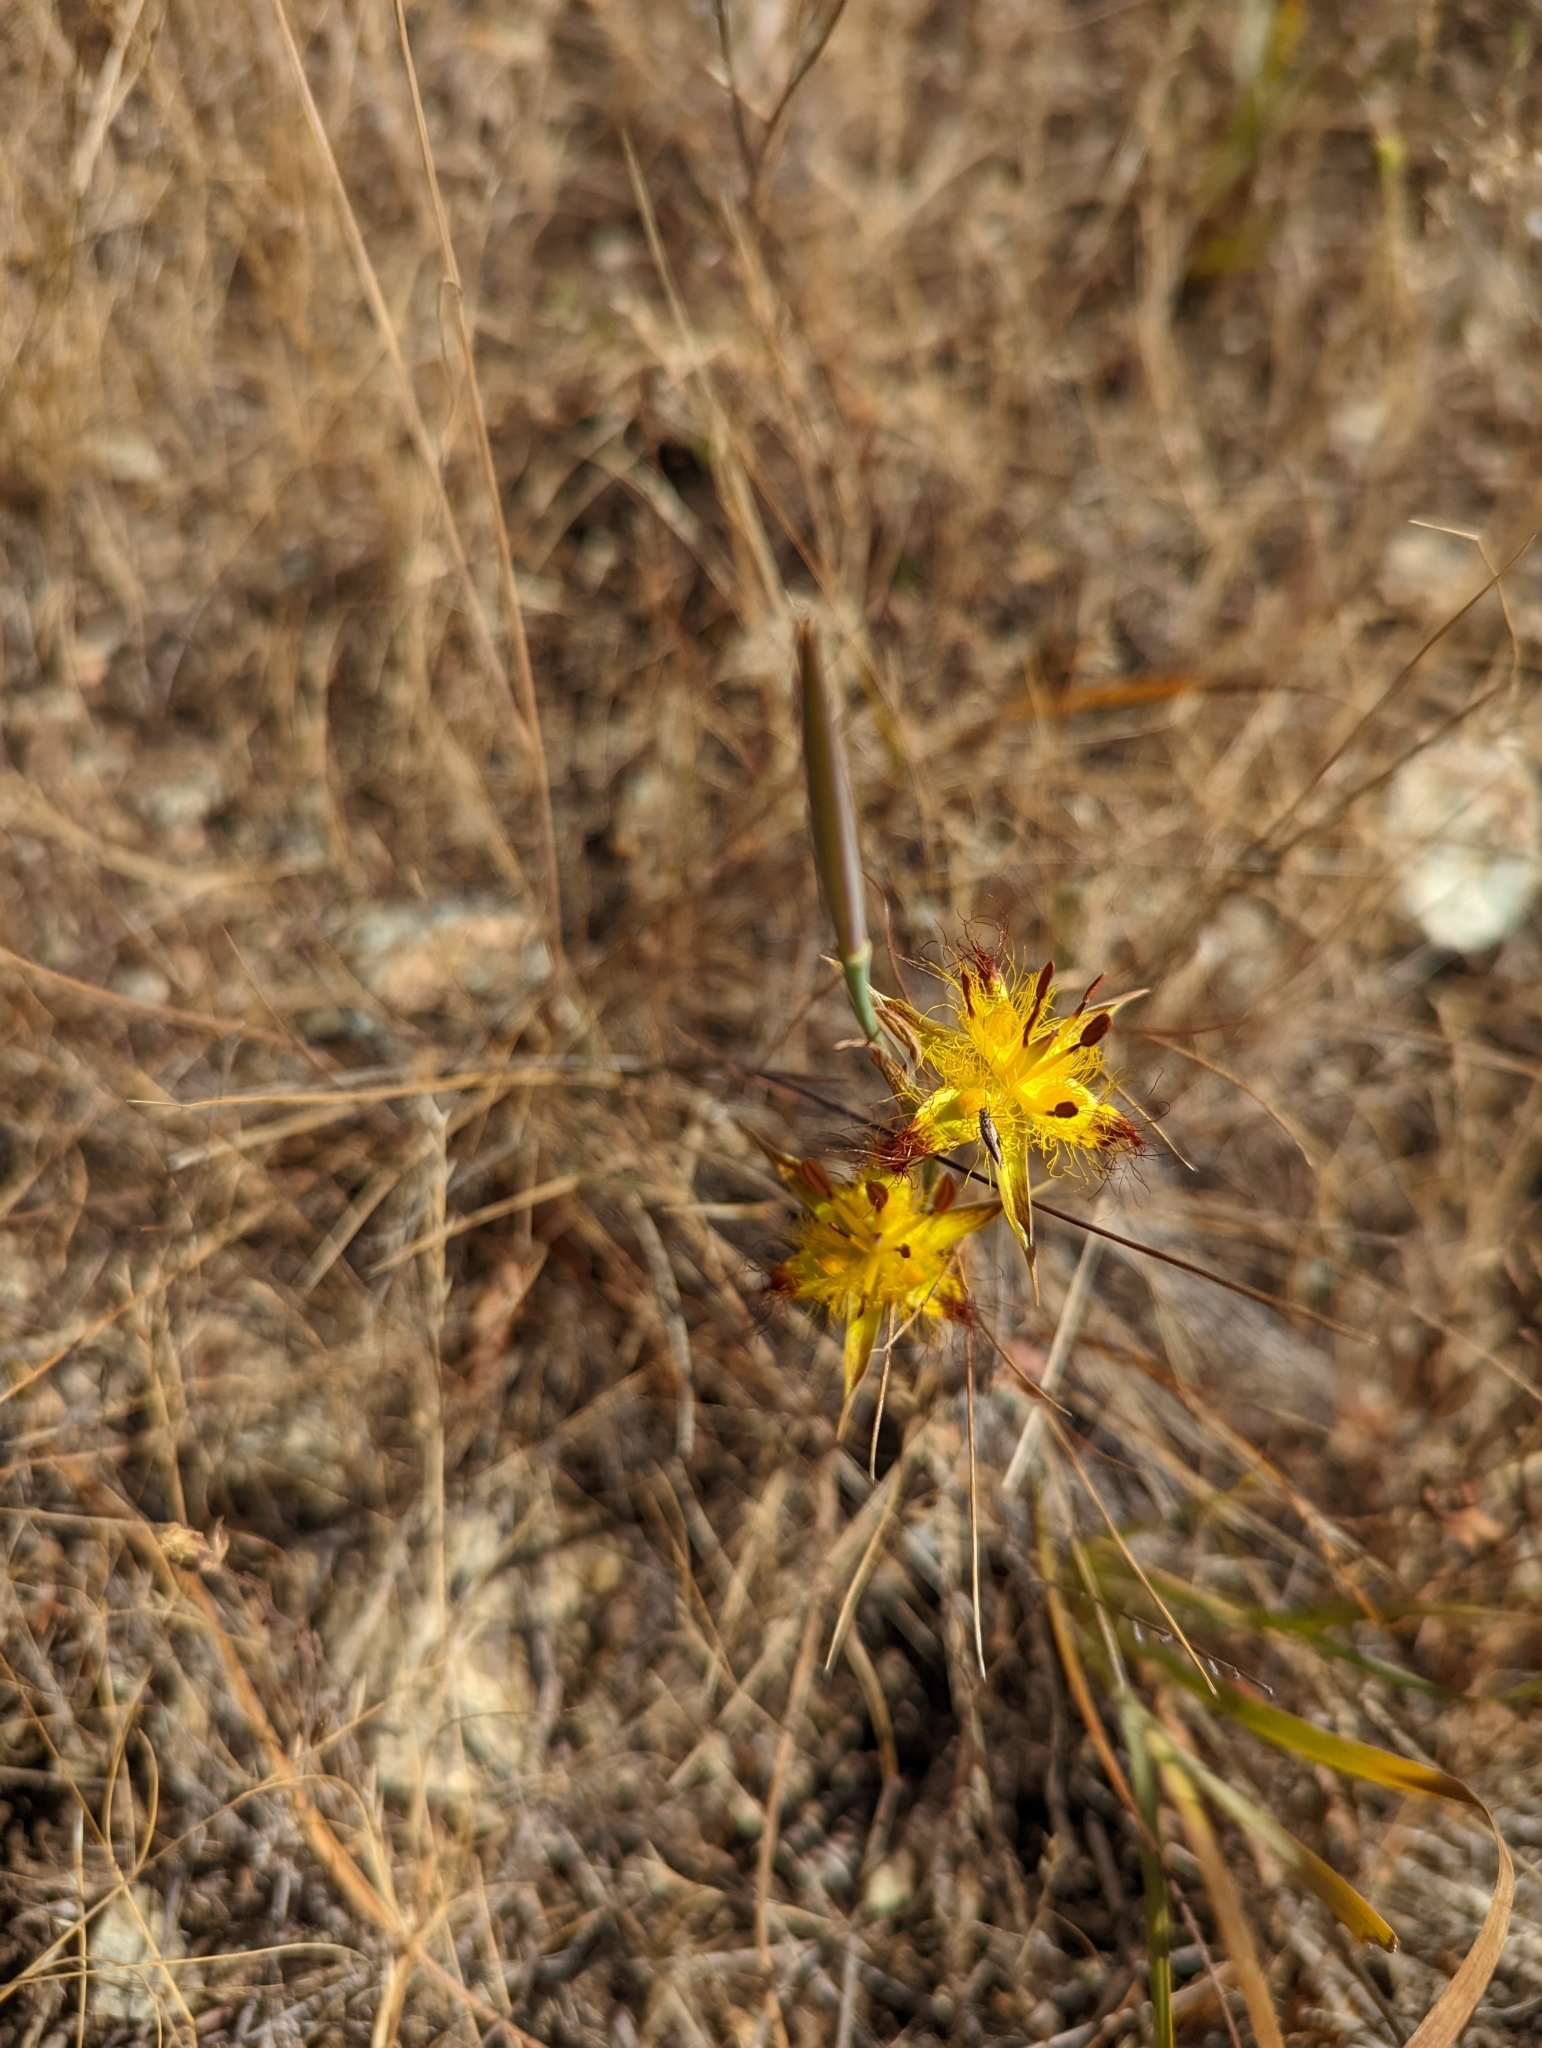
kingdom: Plantae
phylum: Tracheophyta
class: Liliopsida
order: Liliales
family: Liliaceae
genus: Calochortus
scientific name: Calochortus obispoensis
